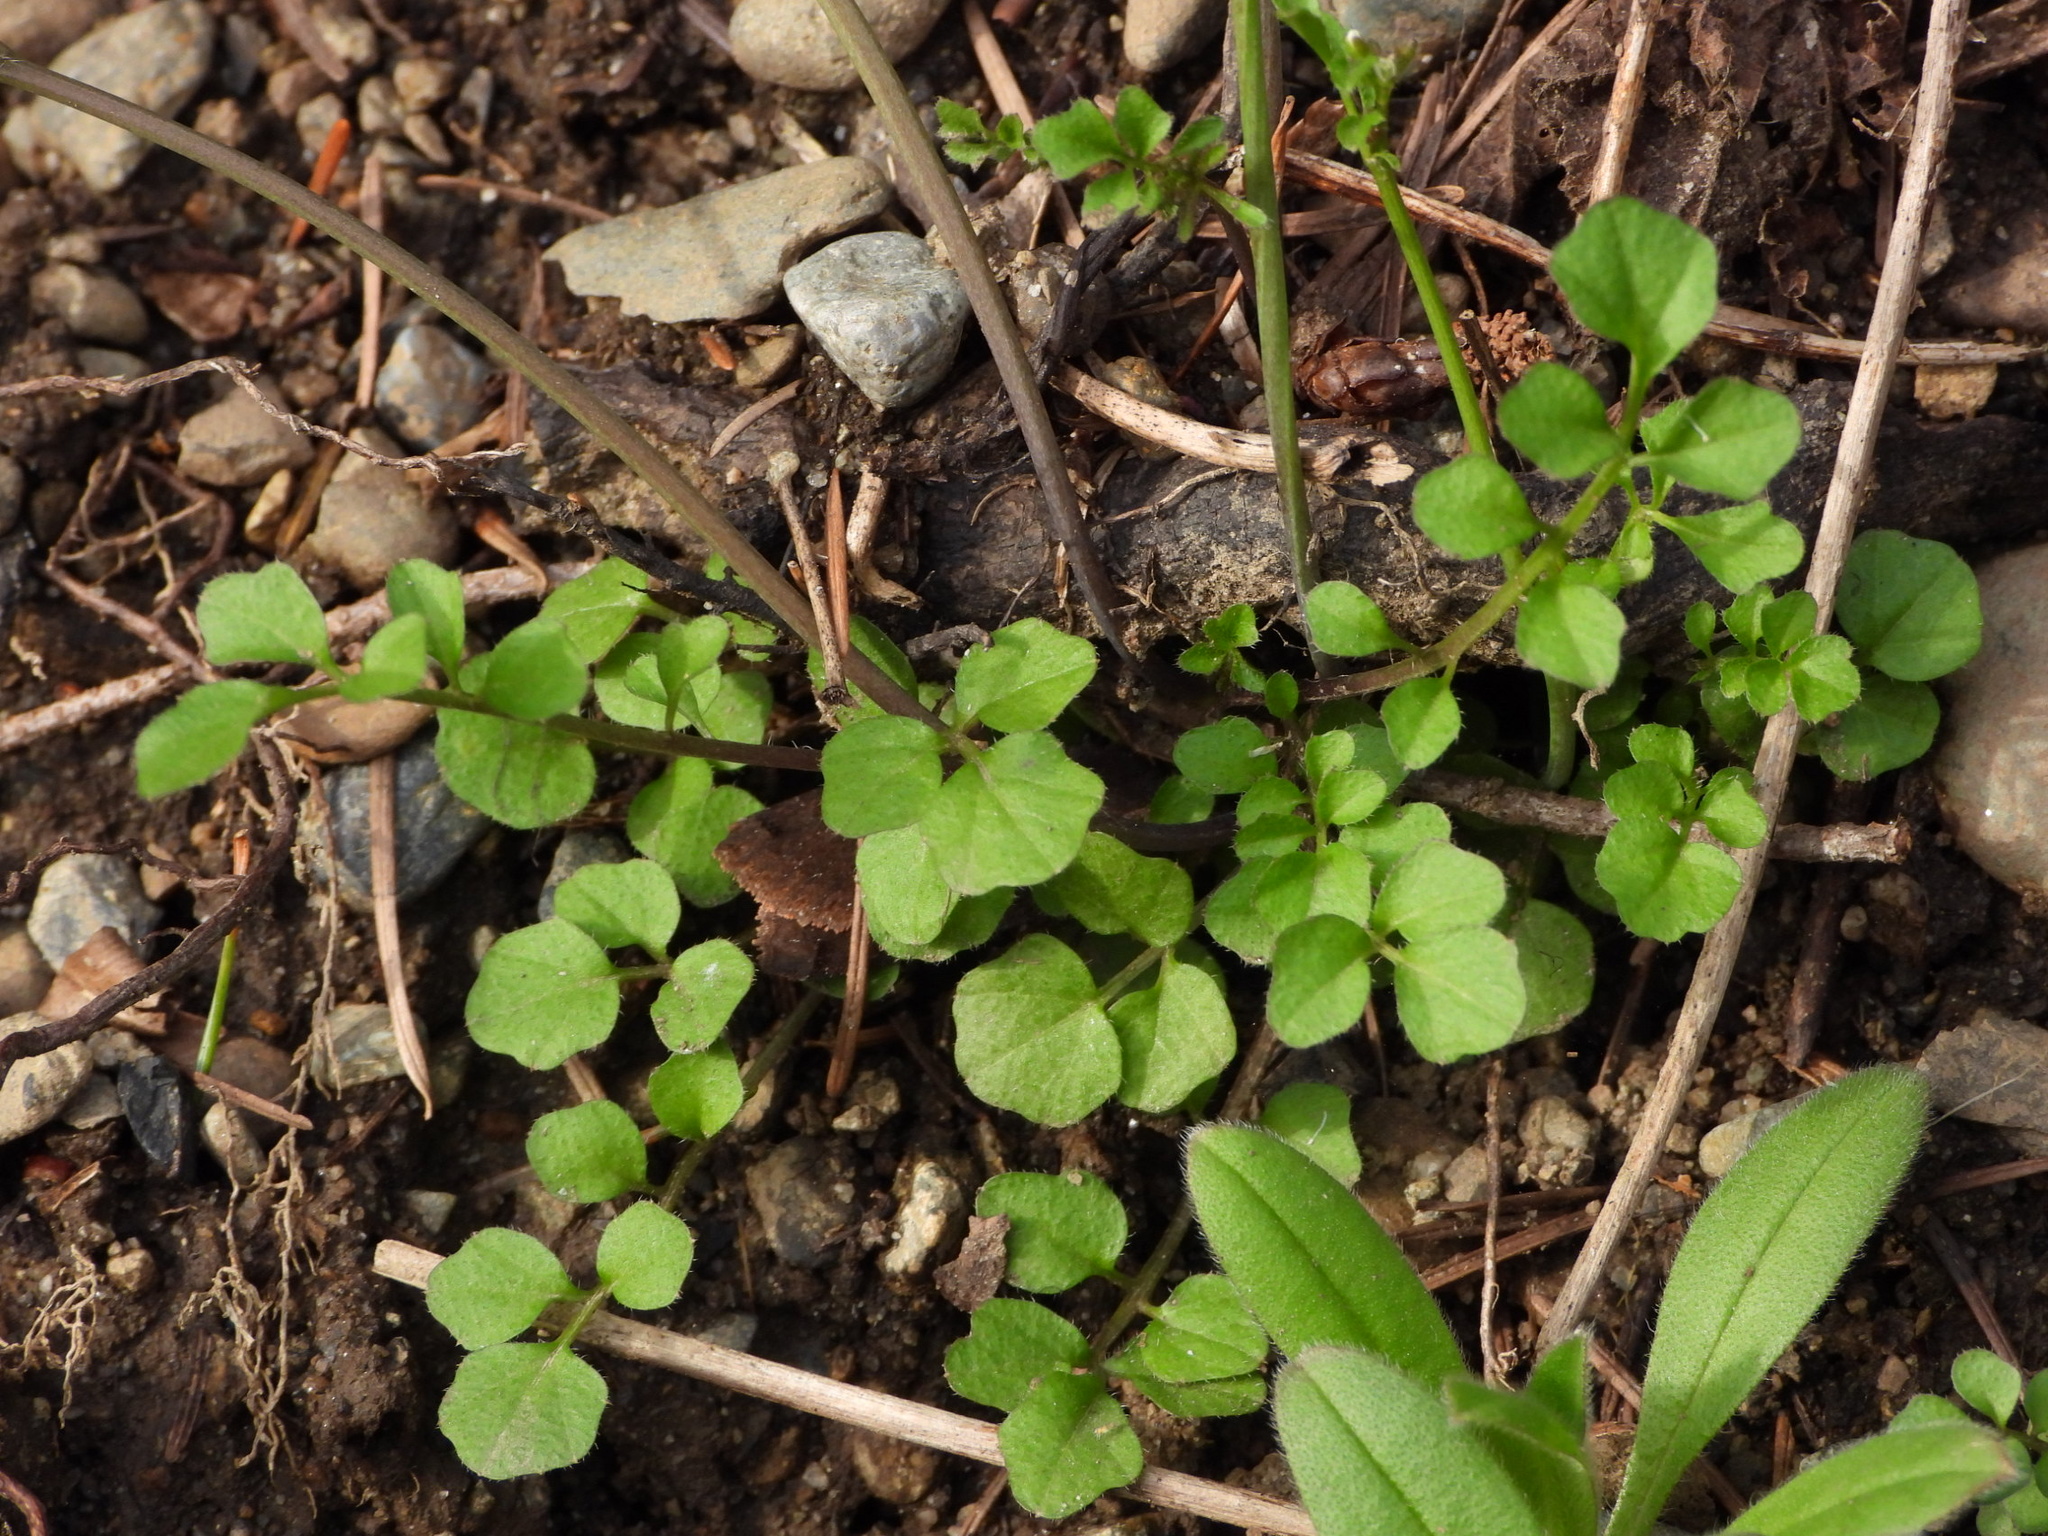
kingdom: Plantae
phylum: Tracheophyta
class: Magnoliopsida
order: Brassicales
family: Brassicaceae
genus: Cardamine
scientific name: Cardamine hirsuta
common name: Hairy bittercress
